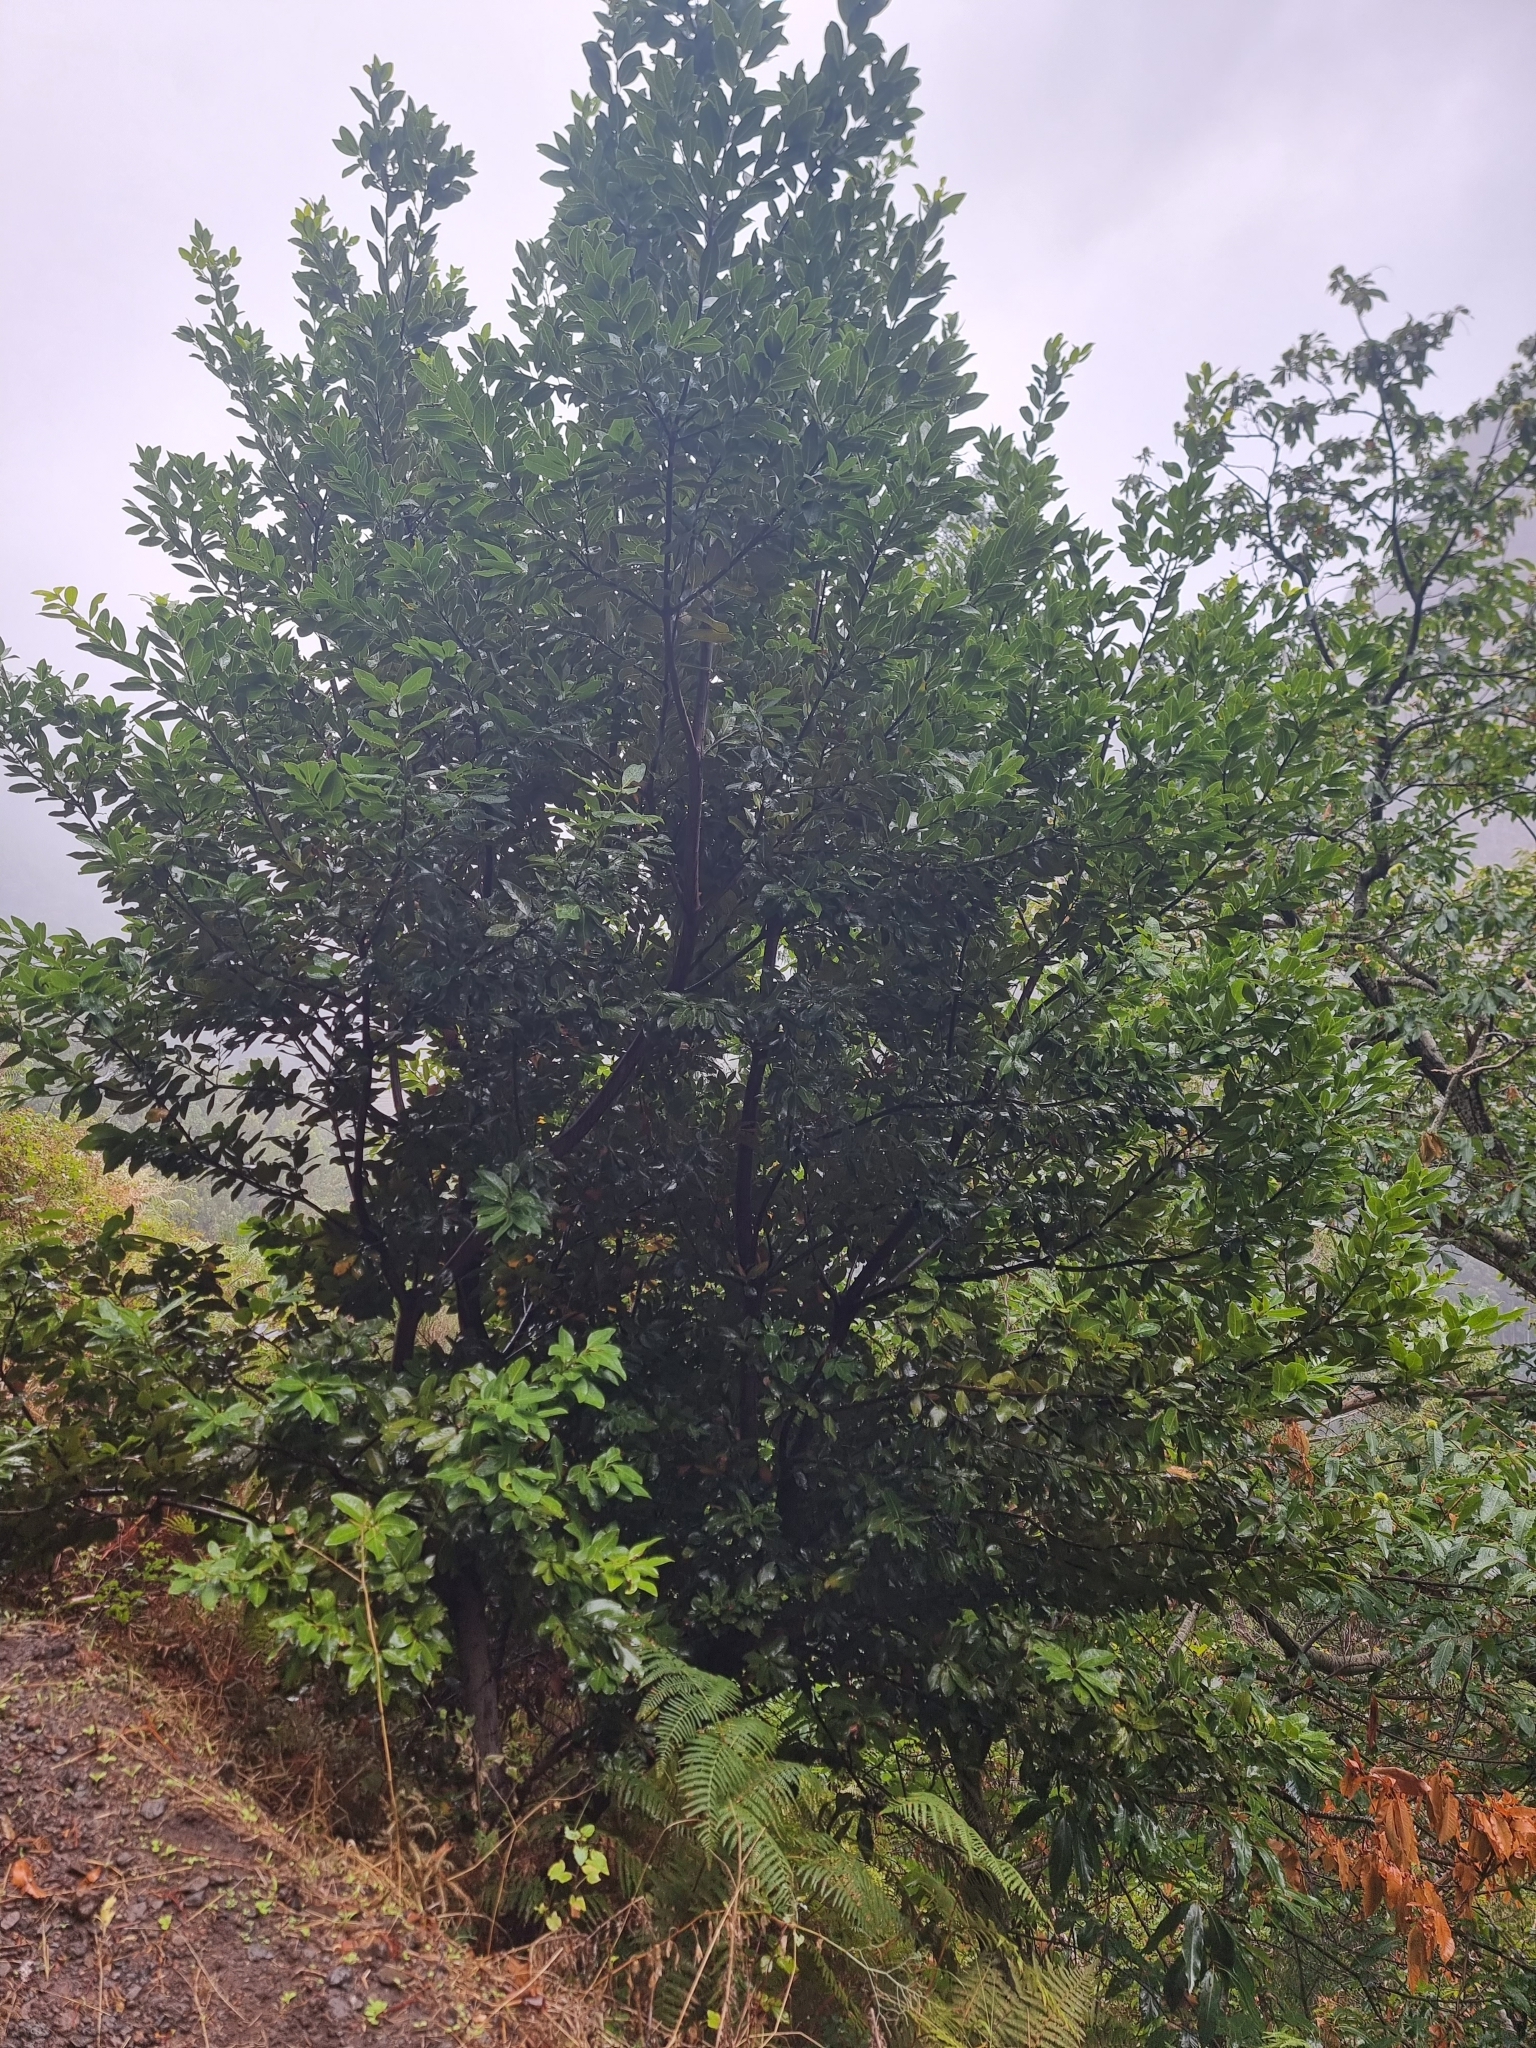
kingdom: Plantae
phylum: Tracheophyta
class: Magnoliopsida
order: Laurales
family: Lauraceae
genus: Laurus
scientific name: Laurus novocanariensis
